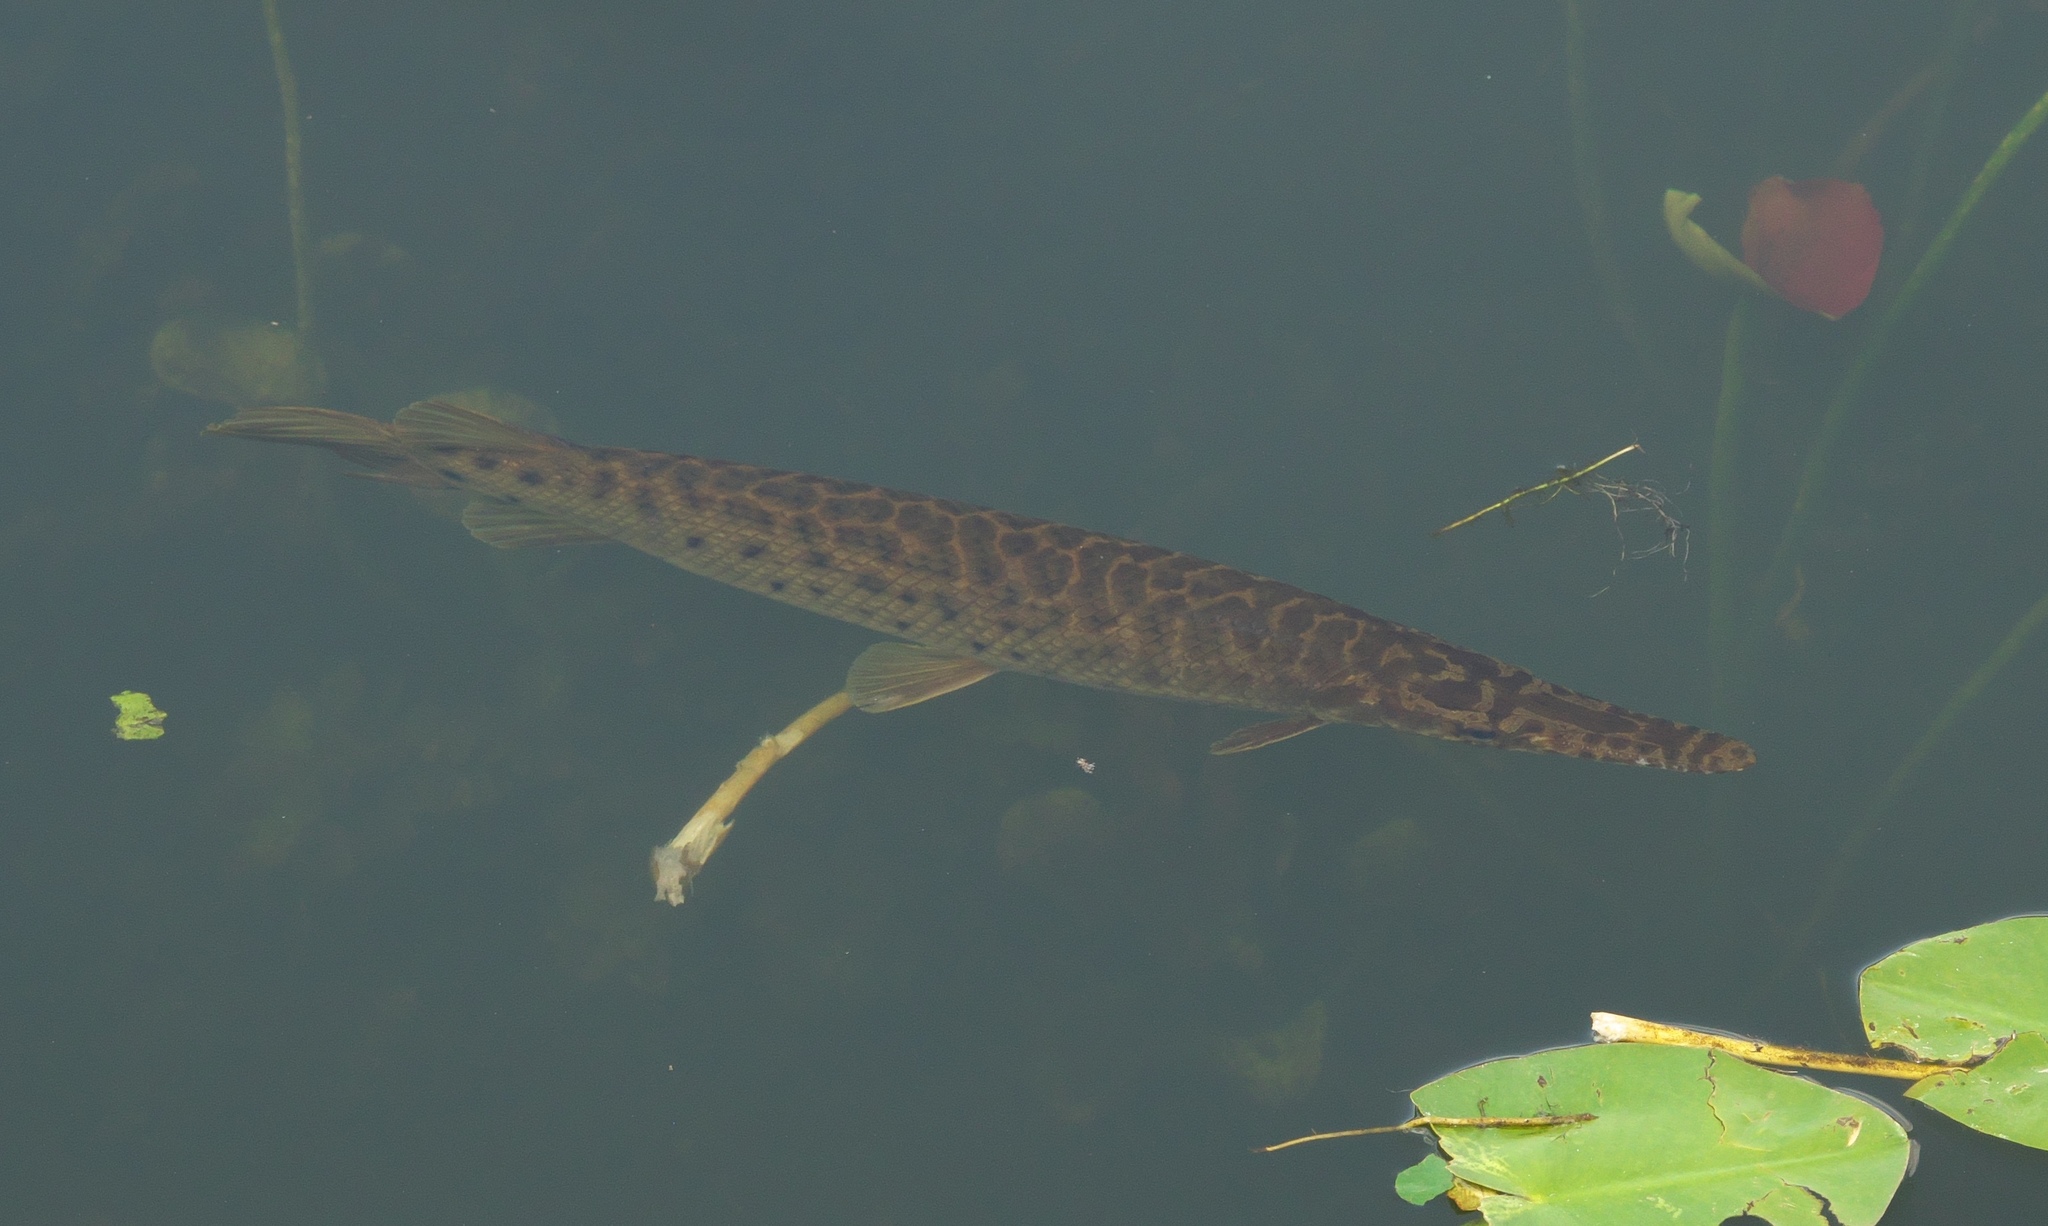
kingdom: Animalia
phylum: Chordata
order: Lepisosteiformes
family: Lepisosteidae
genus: Lepisosteus
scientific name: Lepisosteus platyrhincus
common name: Florida gar
